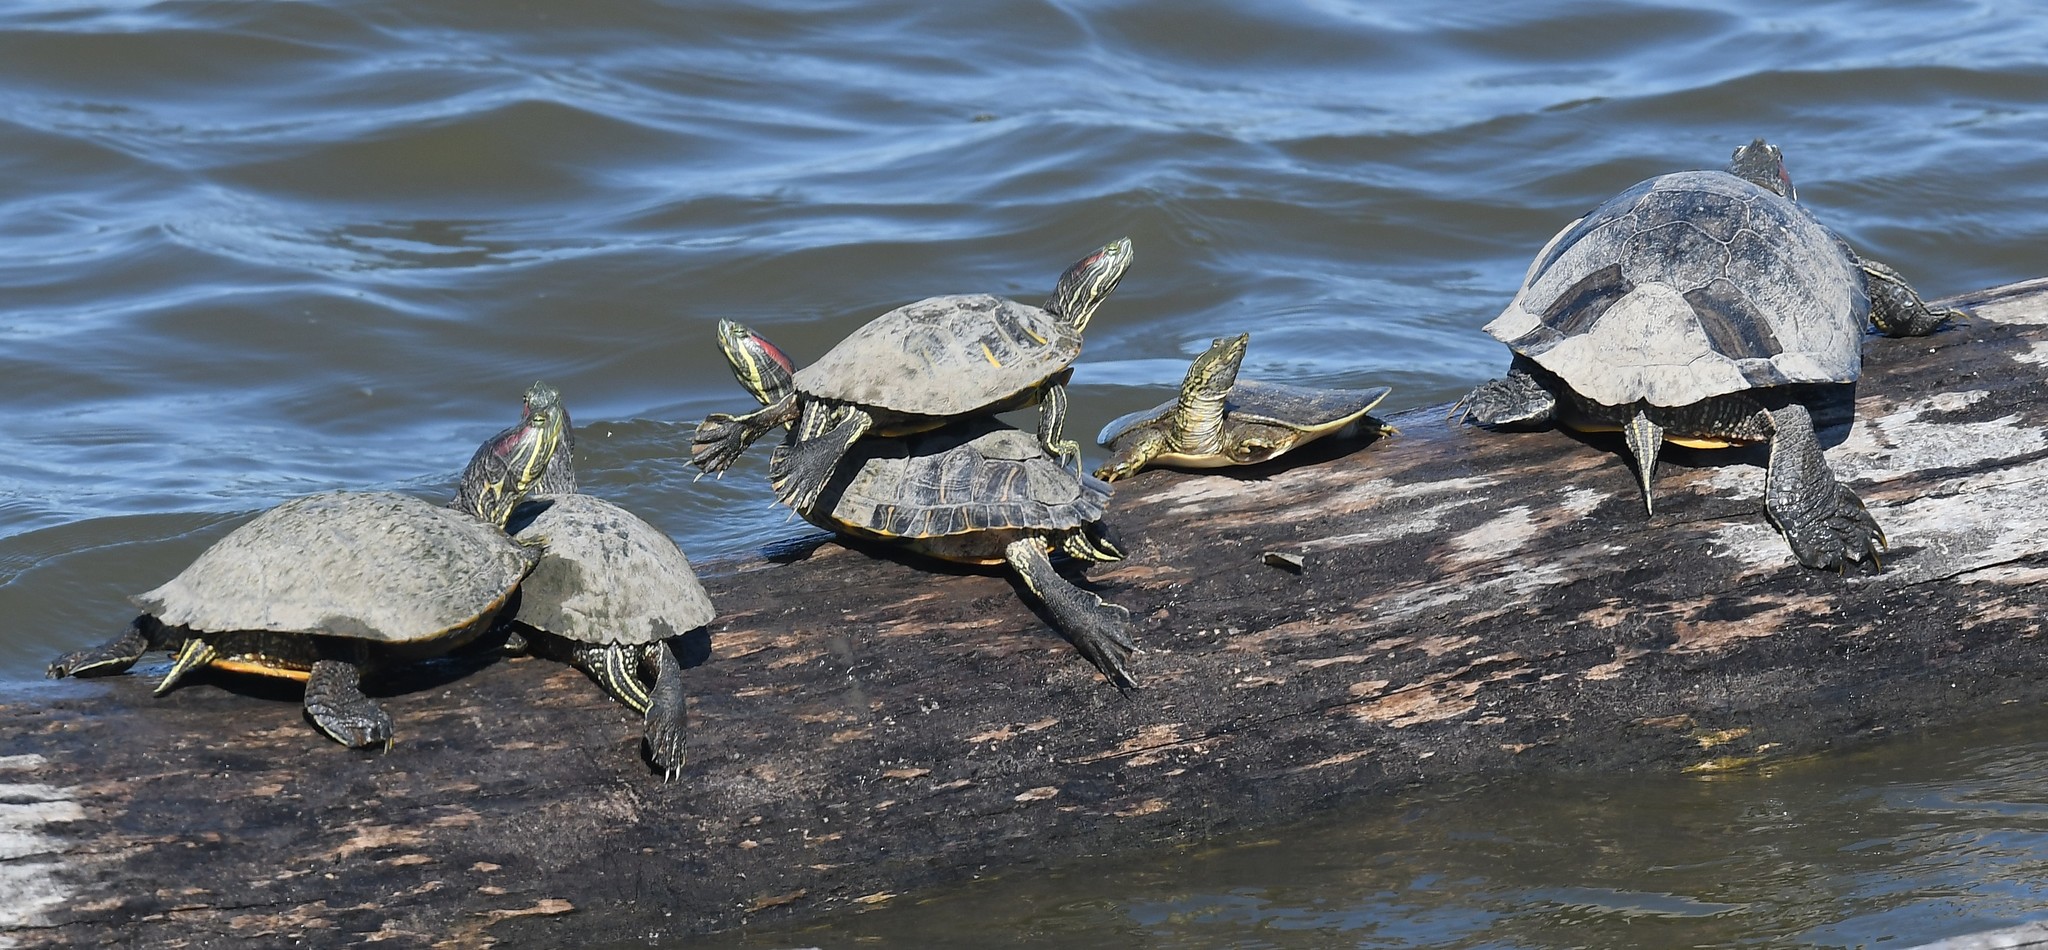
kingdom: Animalia
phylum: Chordata
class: Testudines
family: Trionychidae
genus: Apalone
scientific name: Apalone spinifera
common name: Spiny softshell turtle
